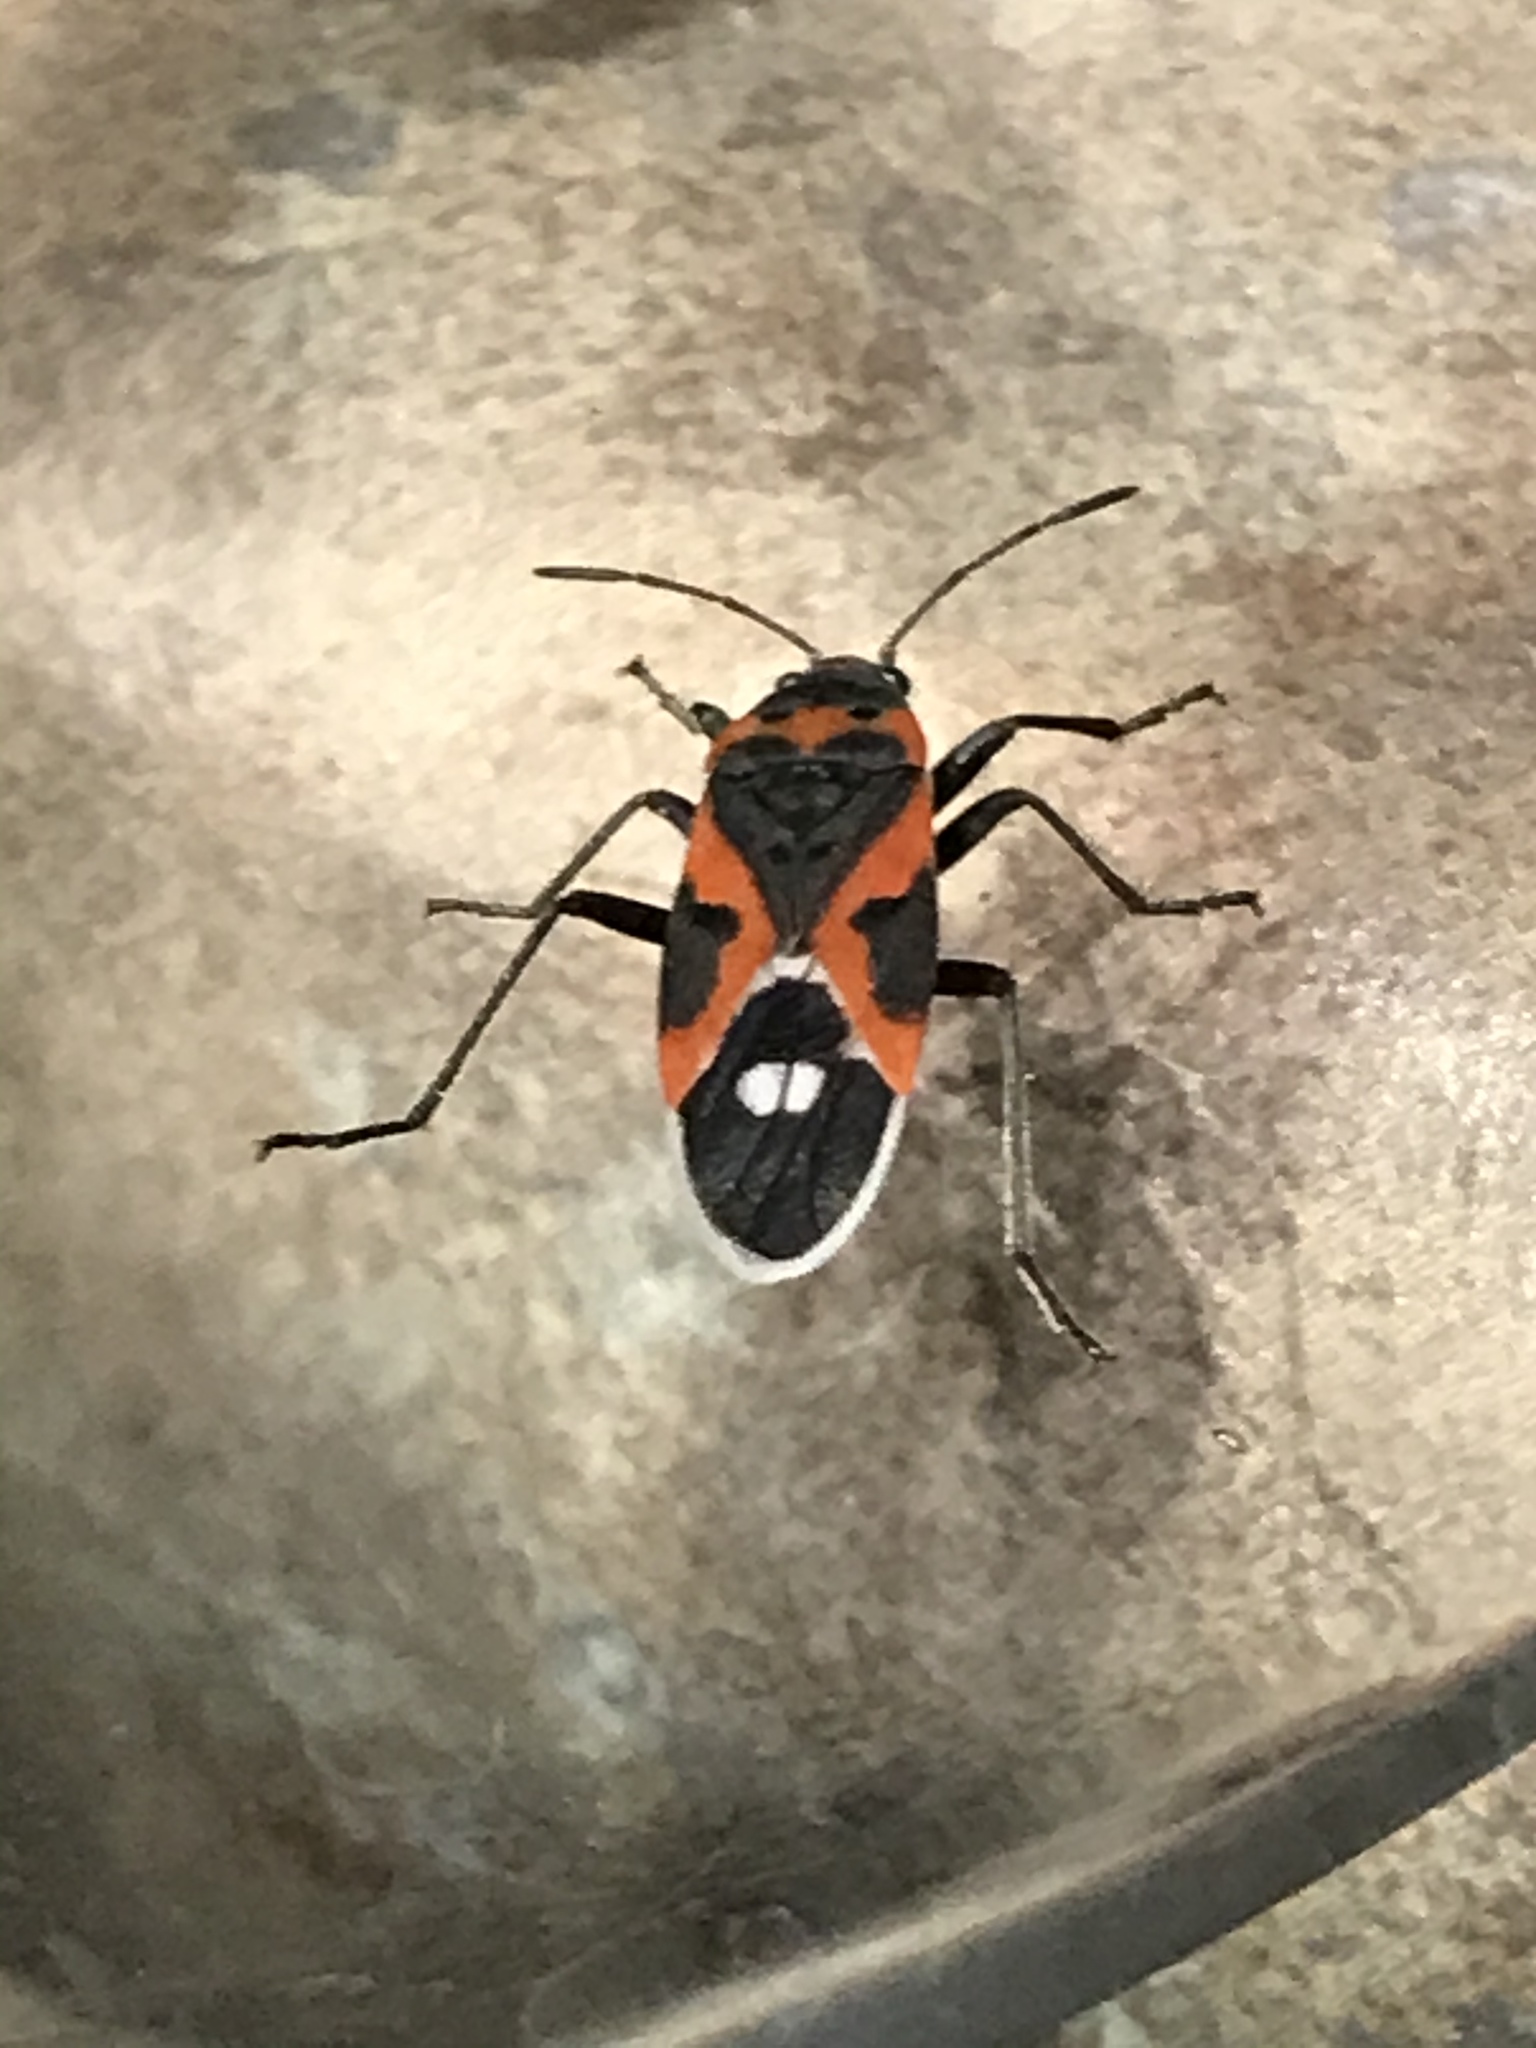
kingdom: Animalia
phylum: Arthropoda
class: Insecta
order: Hemiptera
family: Lygaeidae
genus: Lygaeus
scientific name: Lygaeus kalmii
